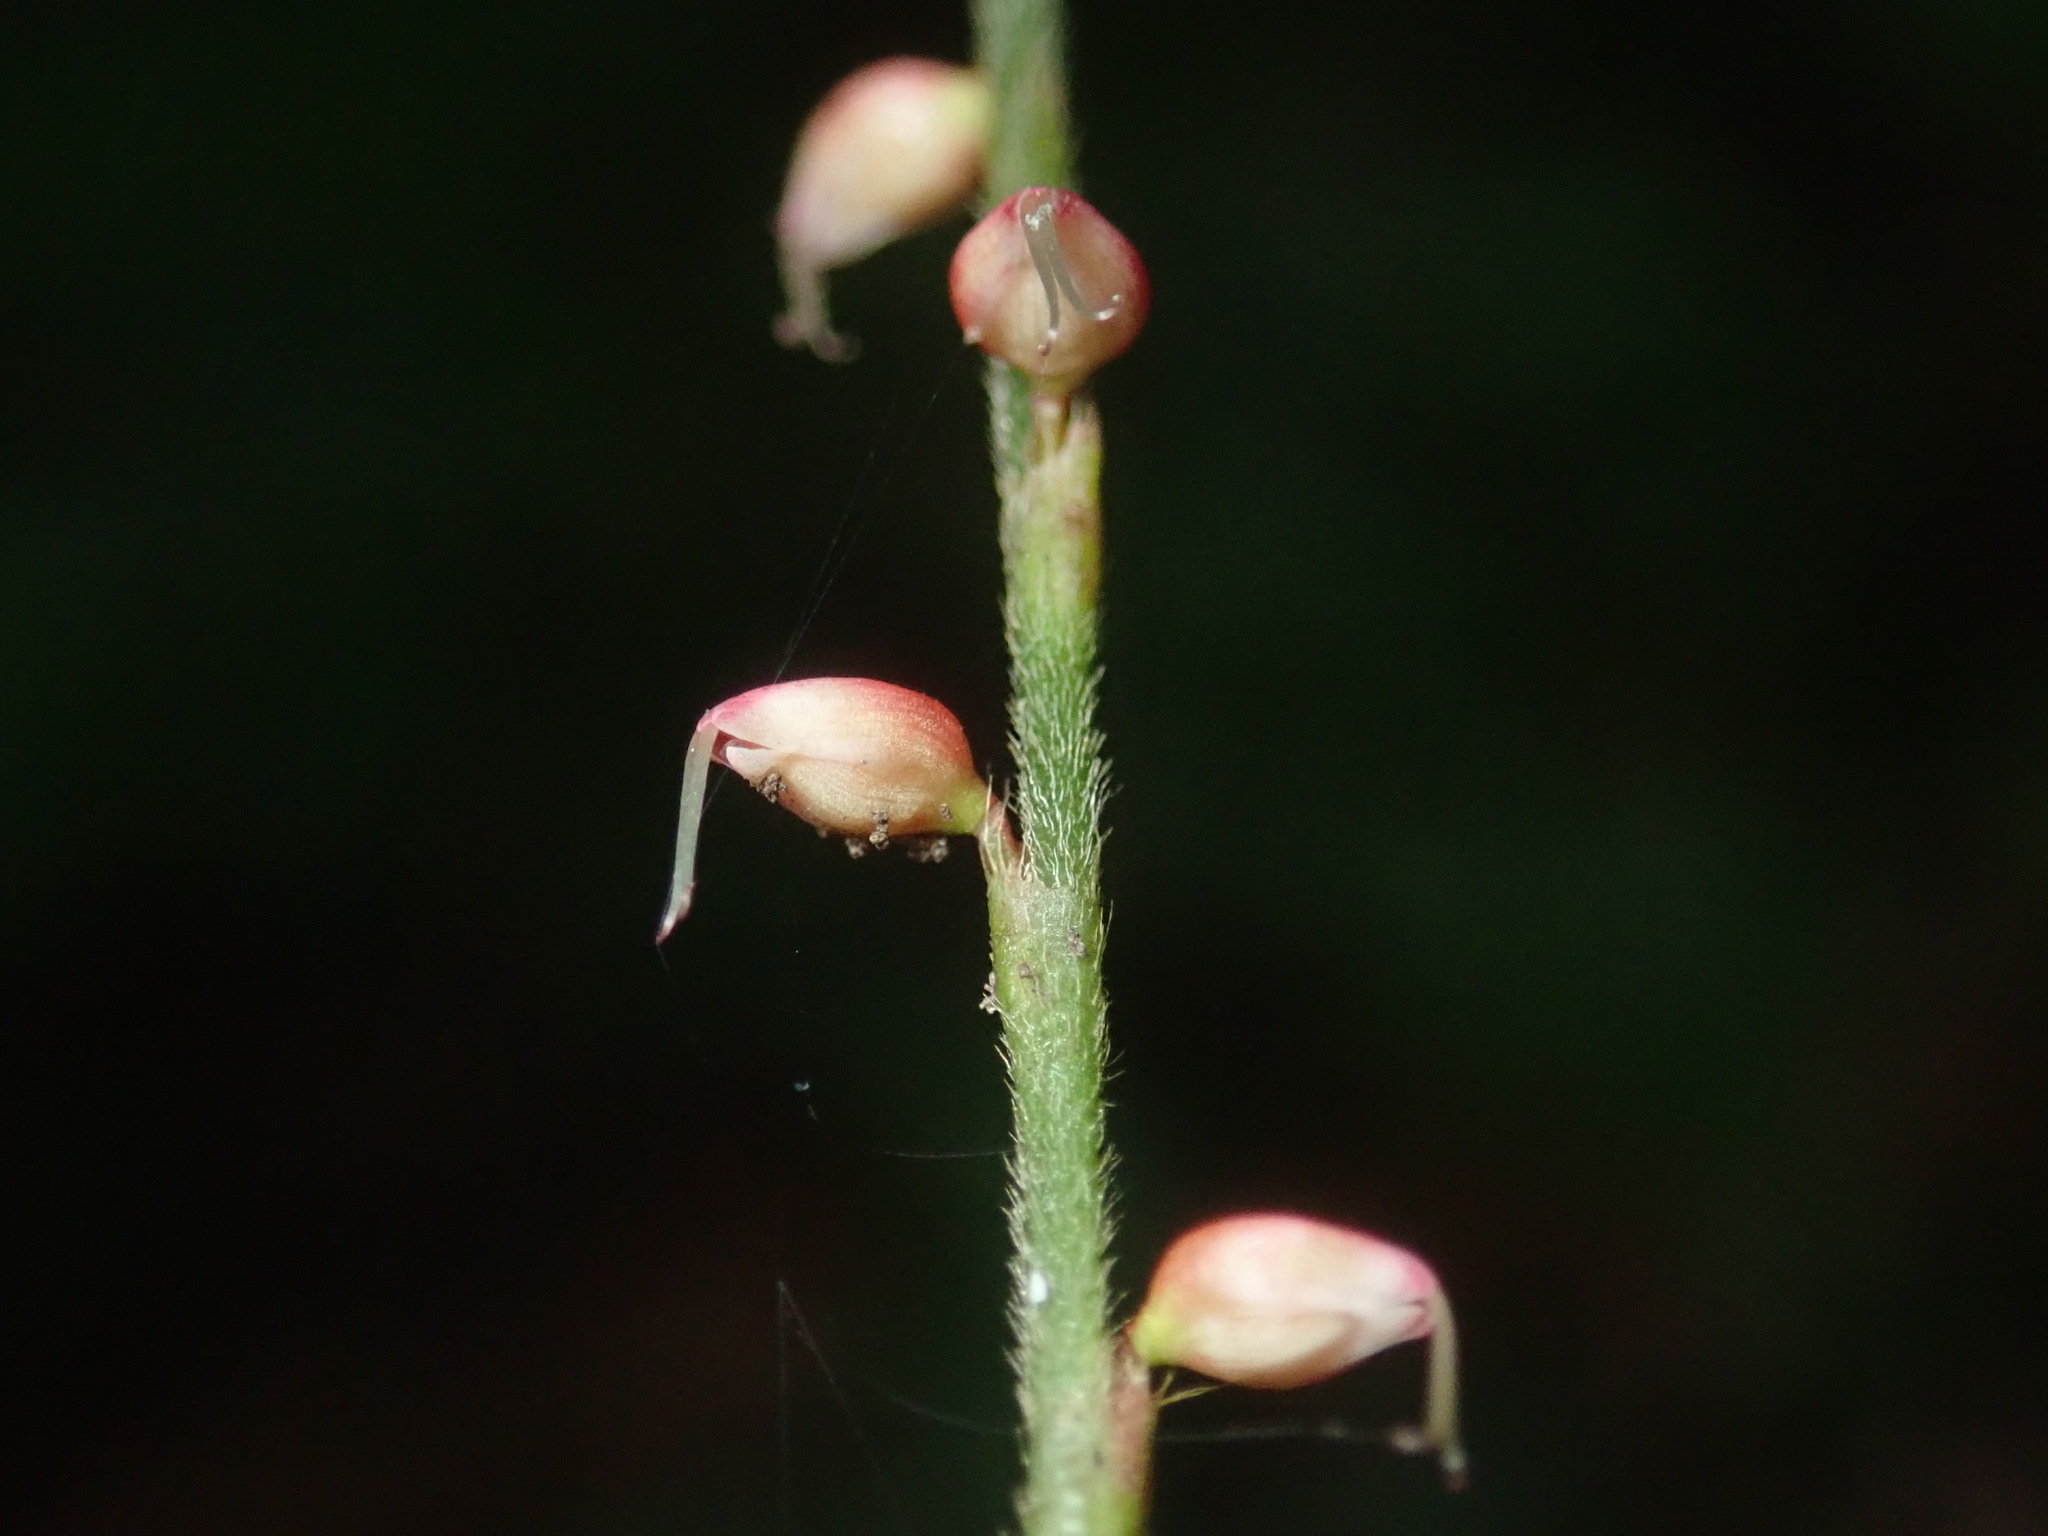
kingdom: Plantae
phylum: Tracheophyta
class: Magnoliopsida
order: Caryophyllales
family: Polygonaceae
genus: Persicaria
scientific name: Persicaria filiformis
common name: Asian jumpseed
